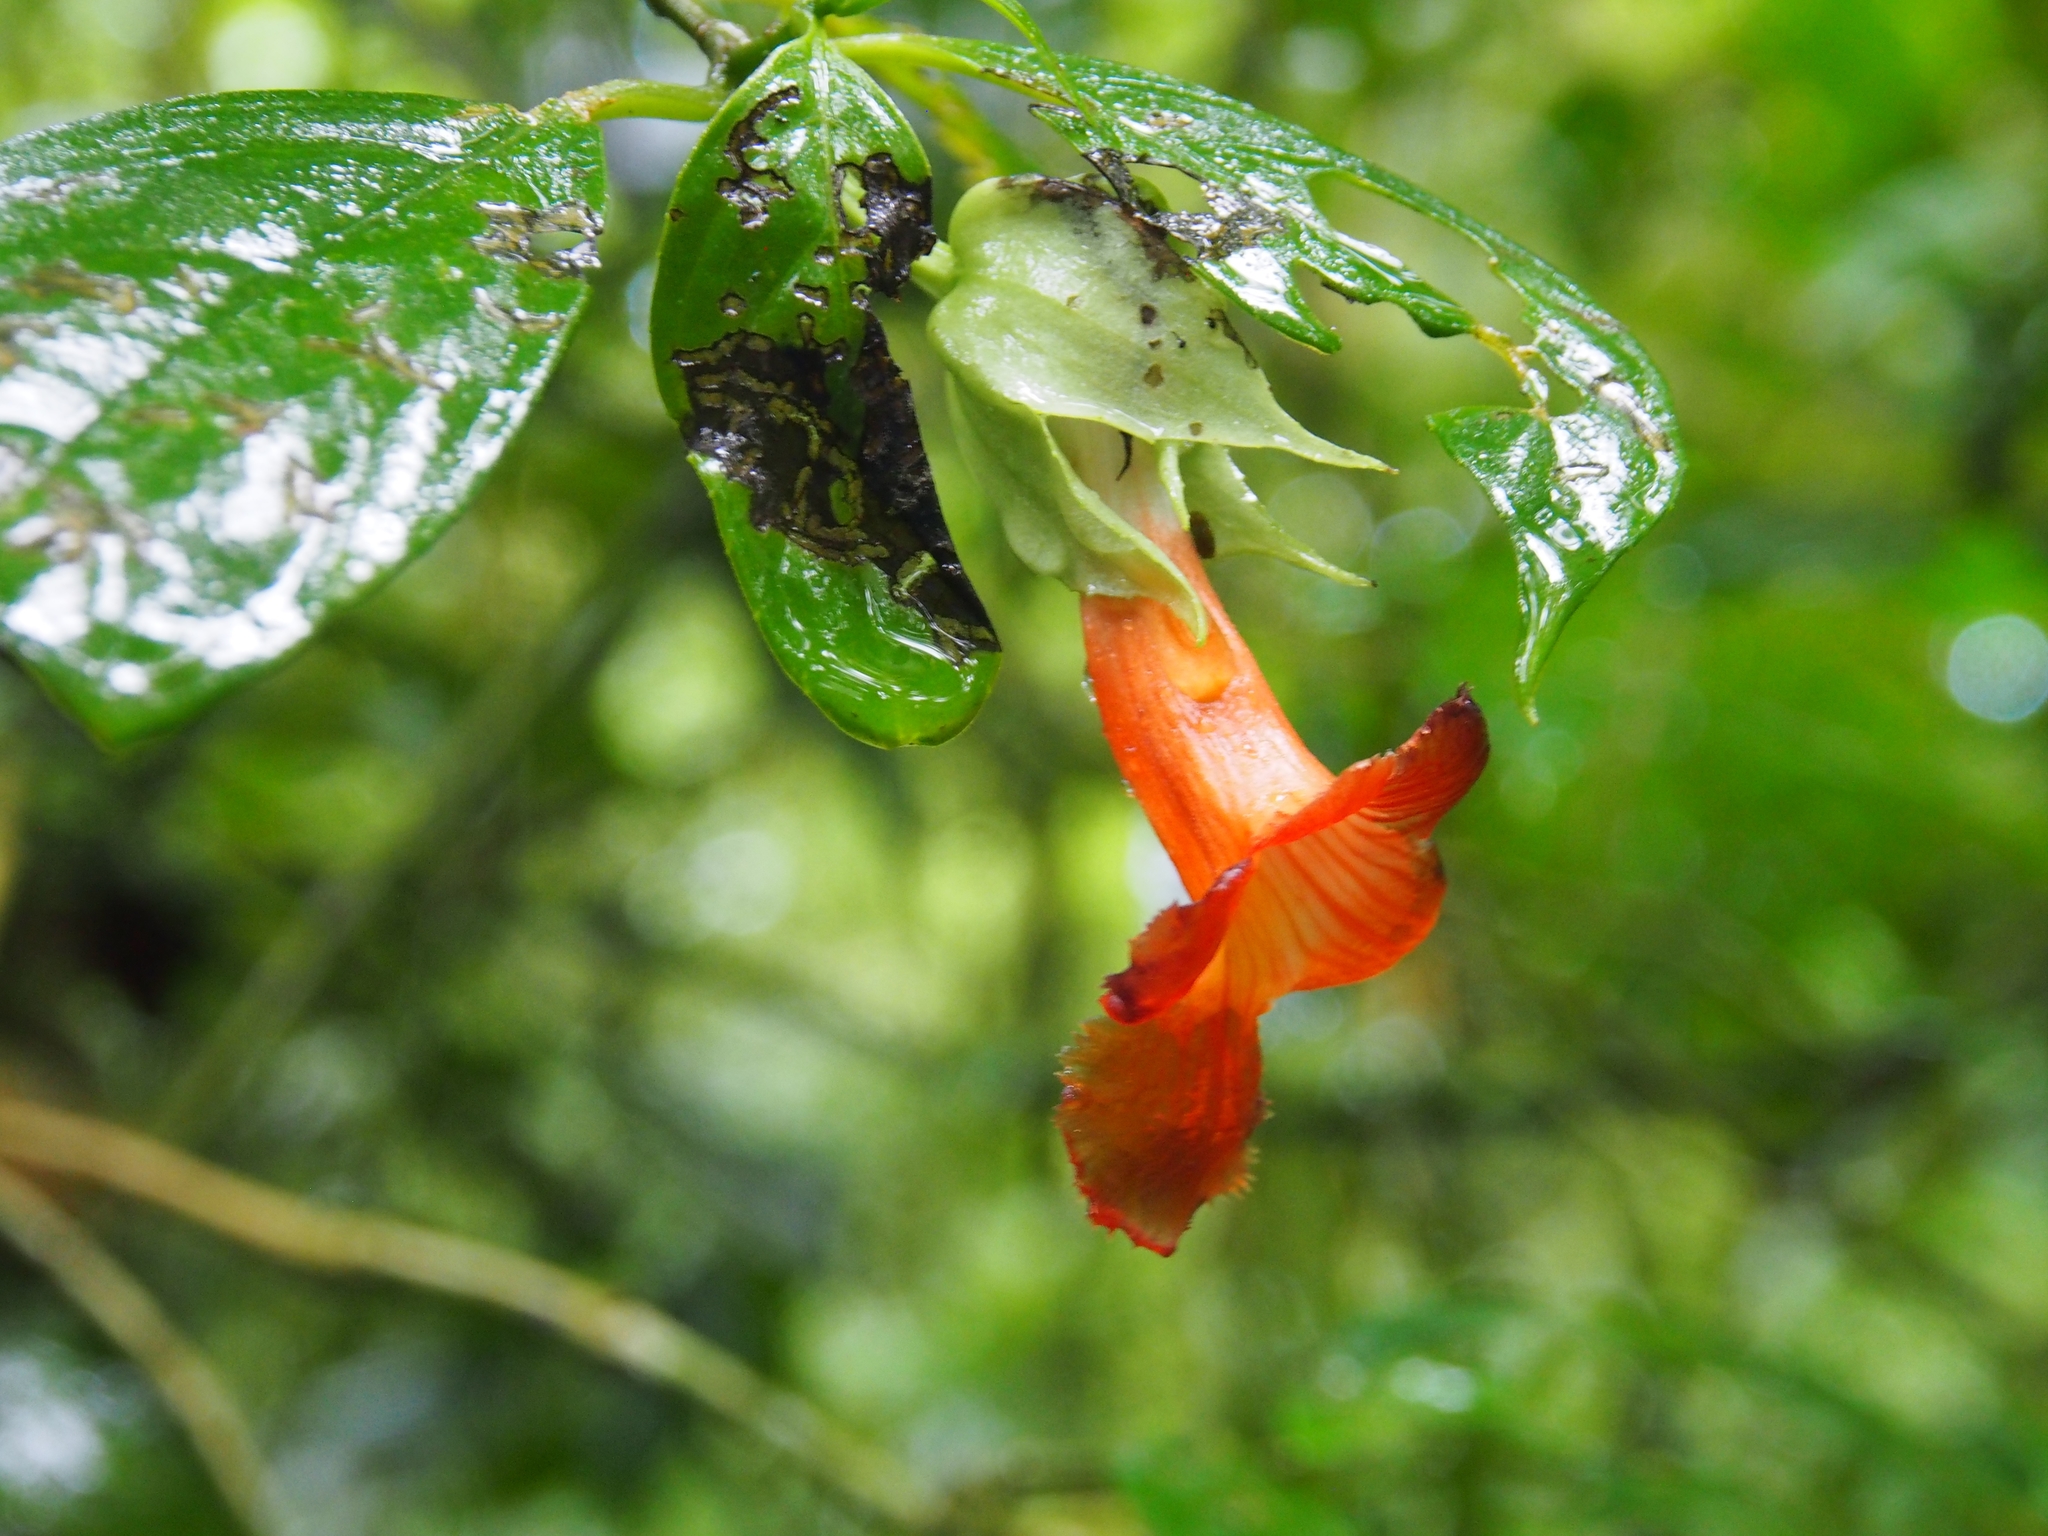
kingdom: Plantae
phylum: Tracheophyta
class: Magnoliopsida
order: Lamiales
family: Gesneriaceae
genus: Drymonia
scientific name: Drymonia rubra
